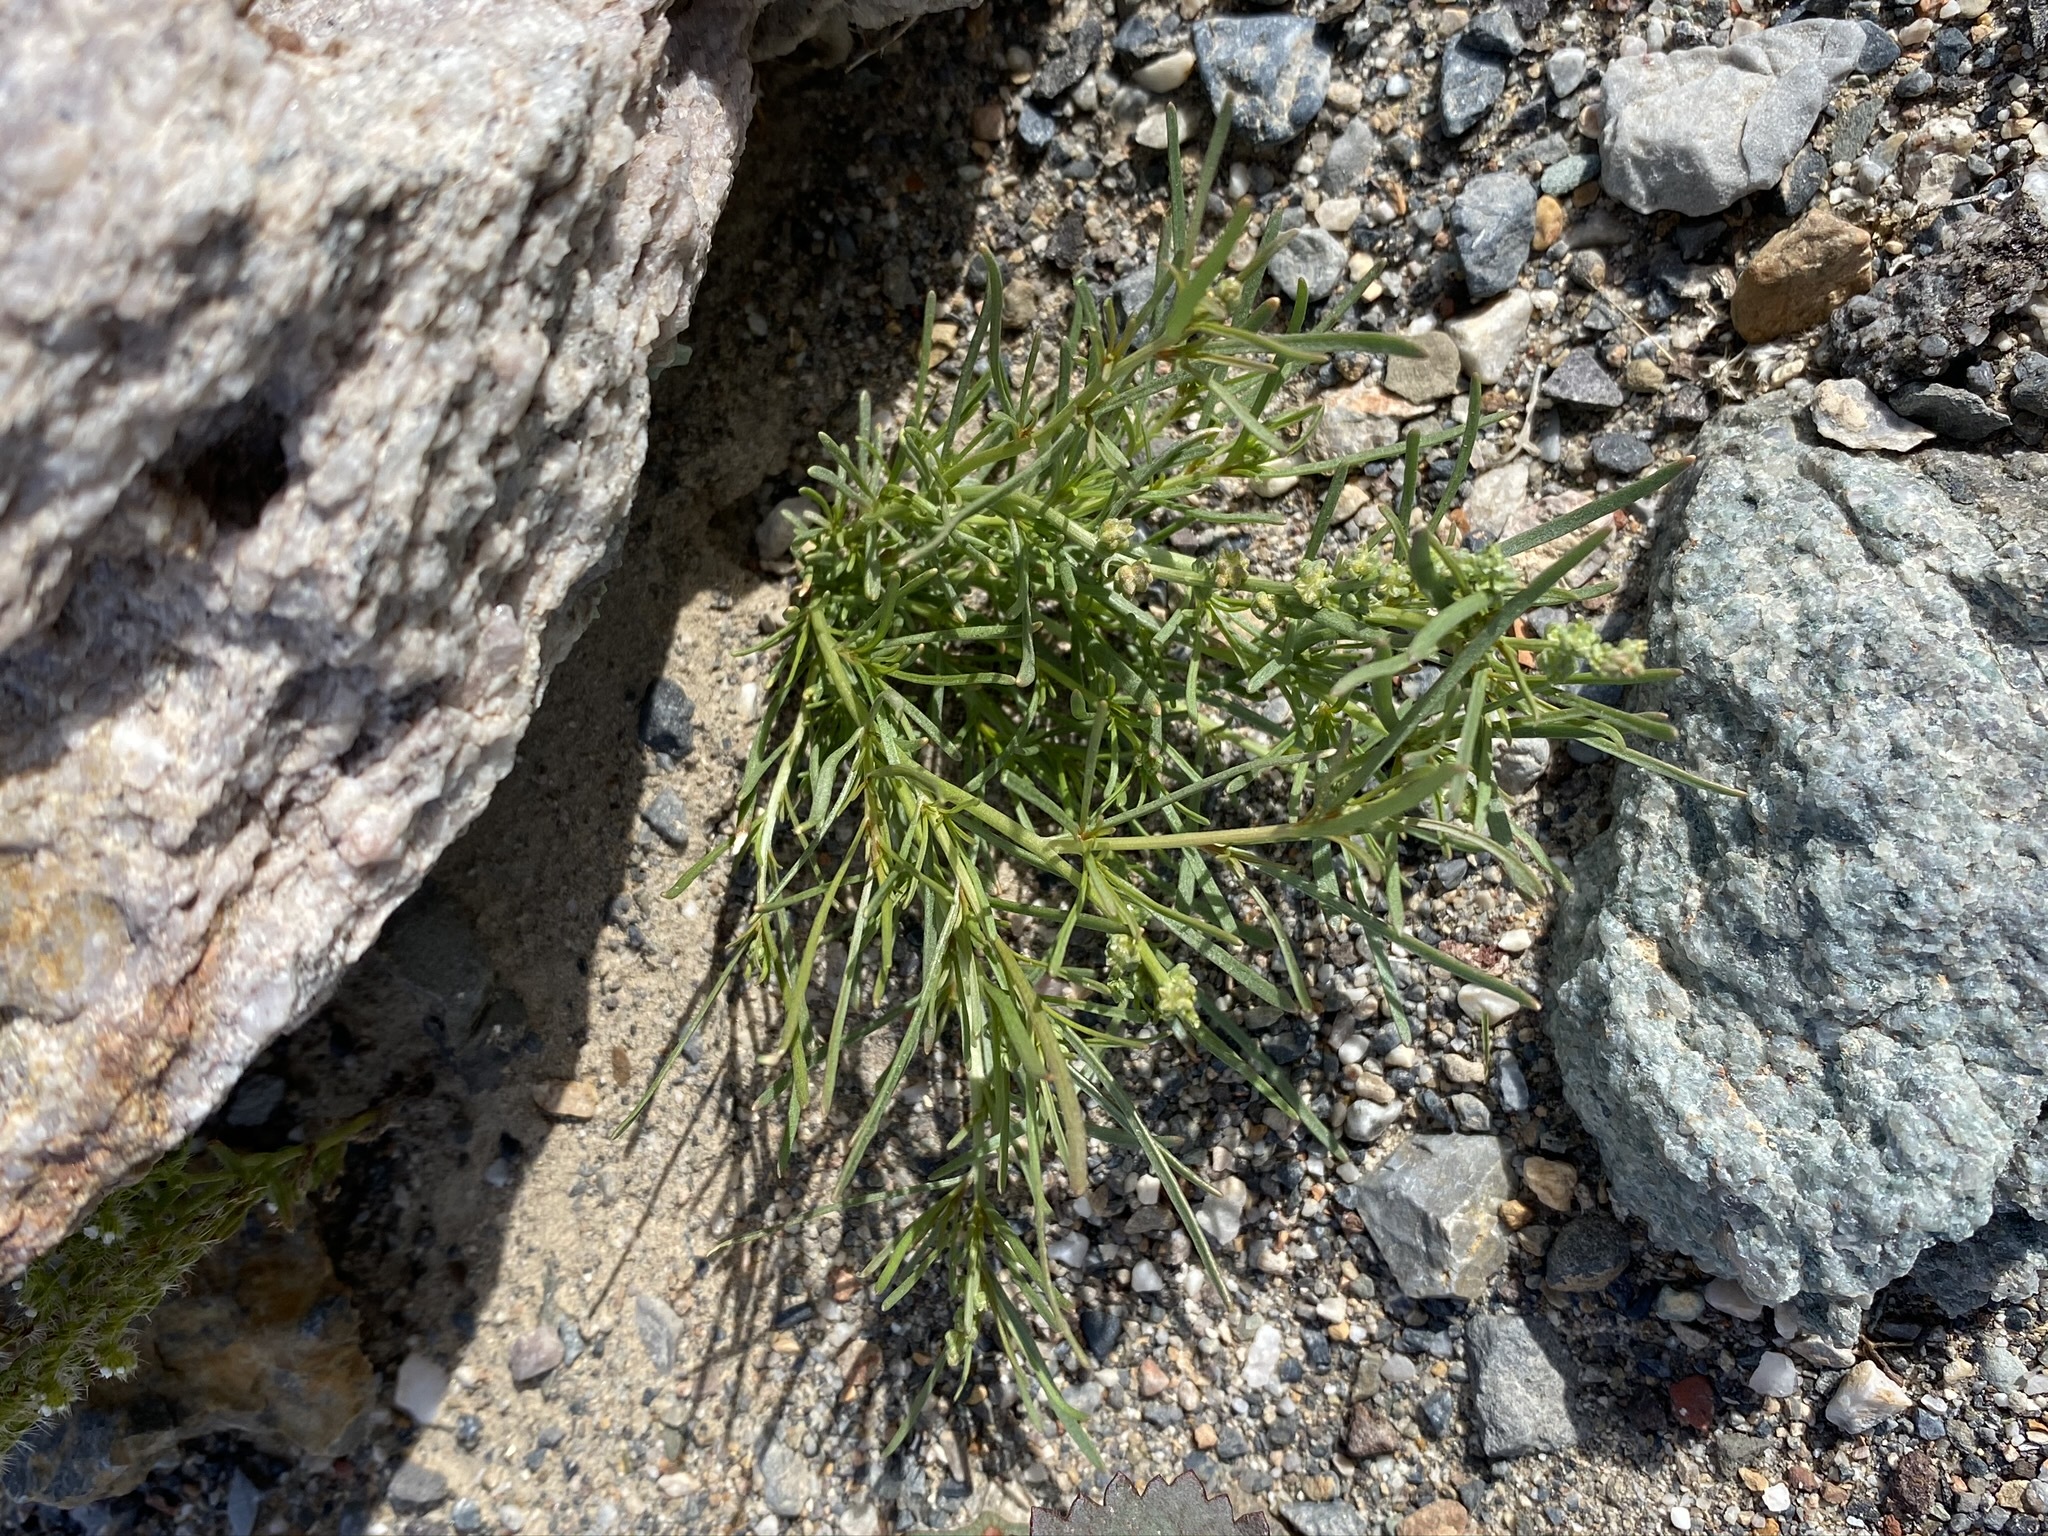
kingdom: Plantae
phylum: Tracheophyta
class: Magnoliopsida
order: Brassicales
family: Resedaceae
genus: Oligomeris
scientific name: Oligomeris linifolia
